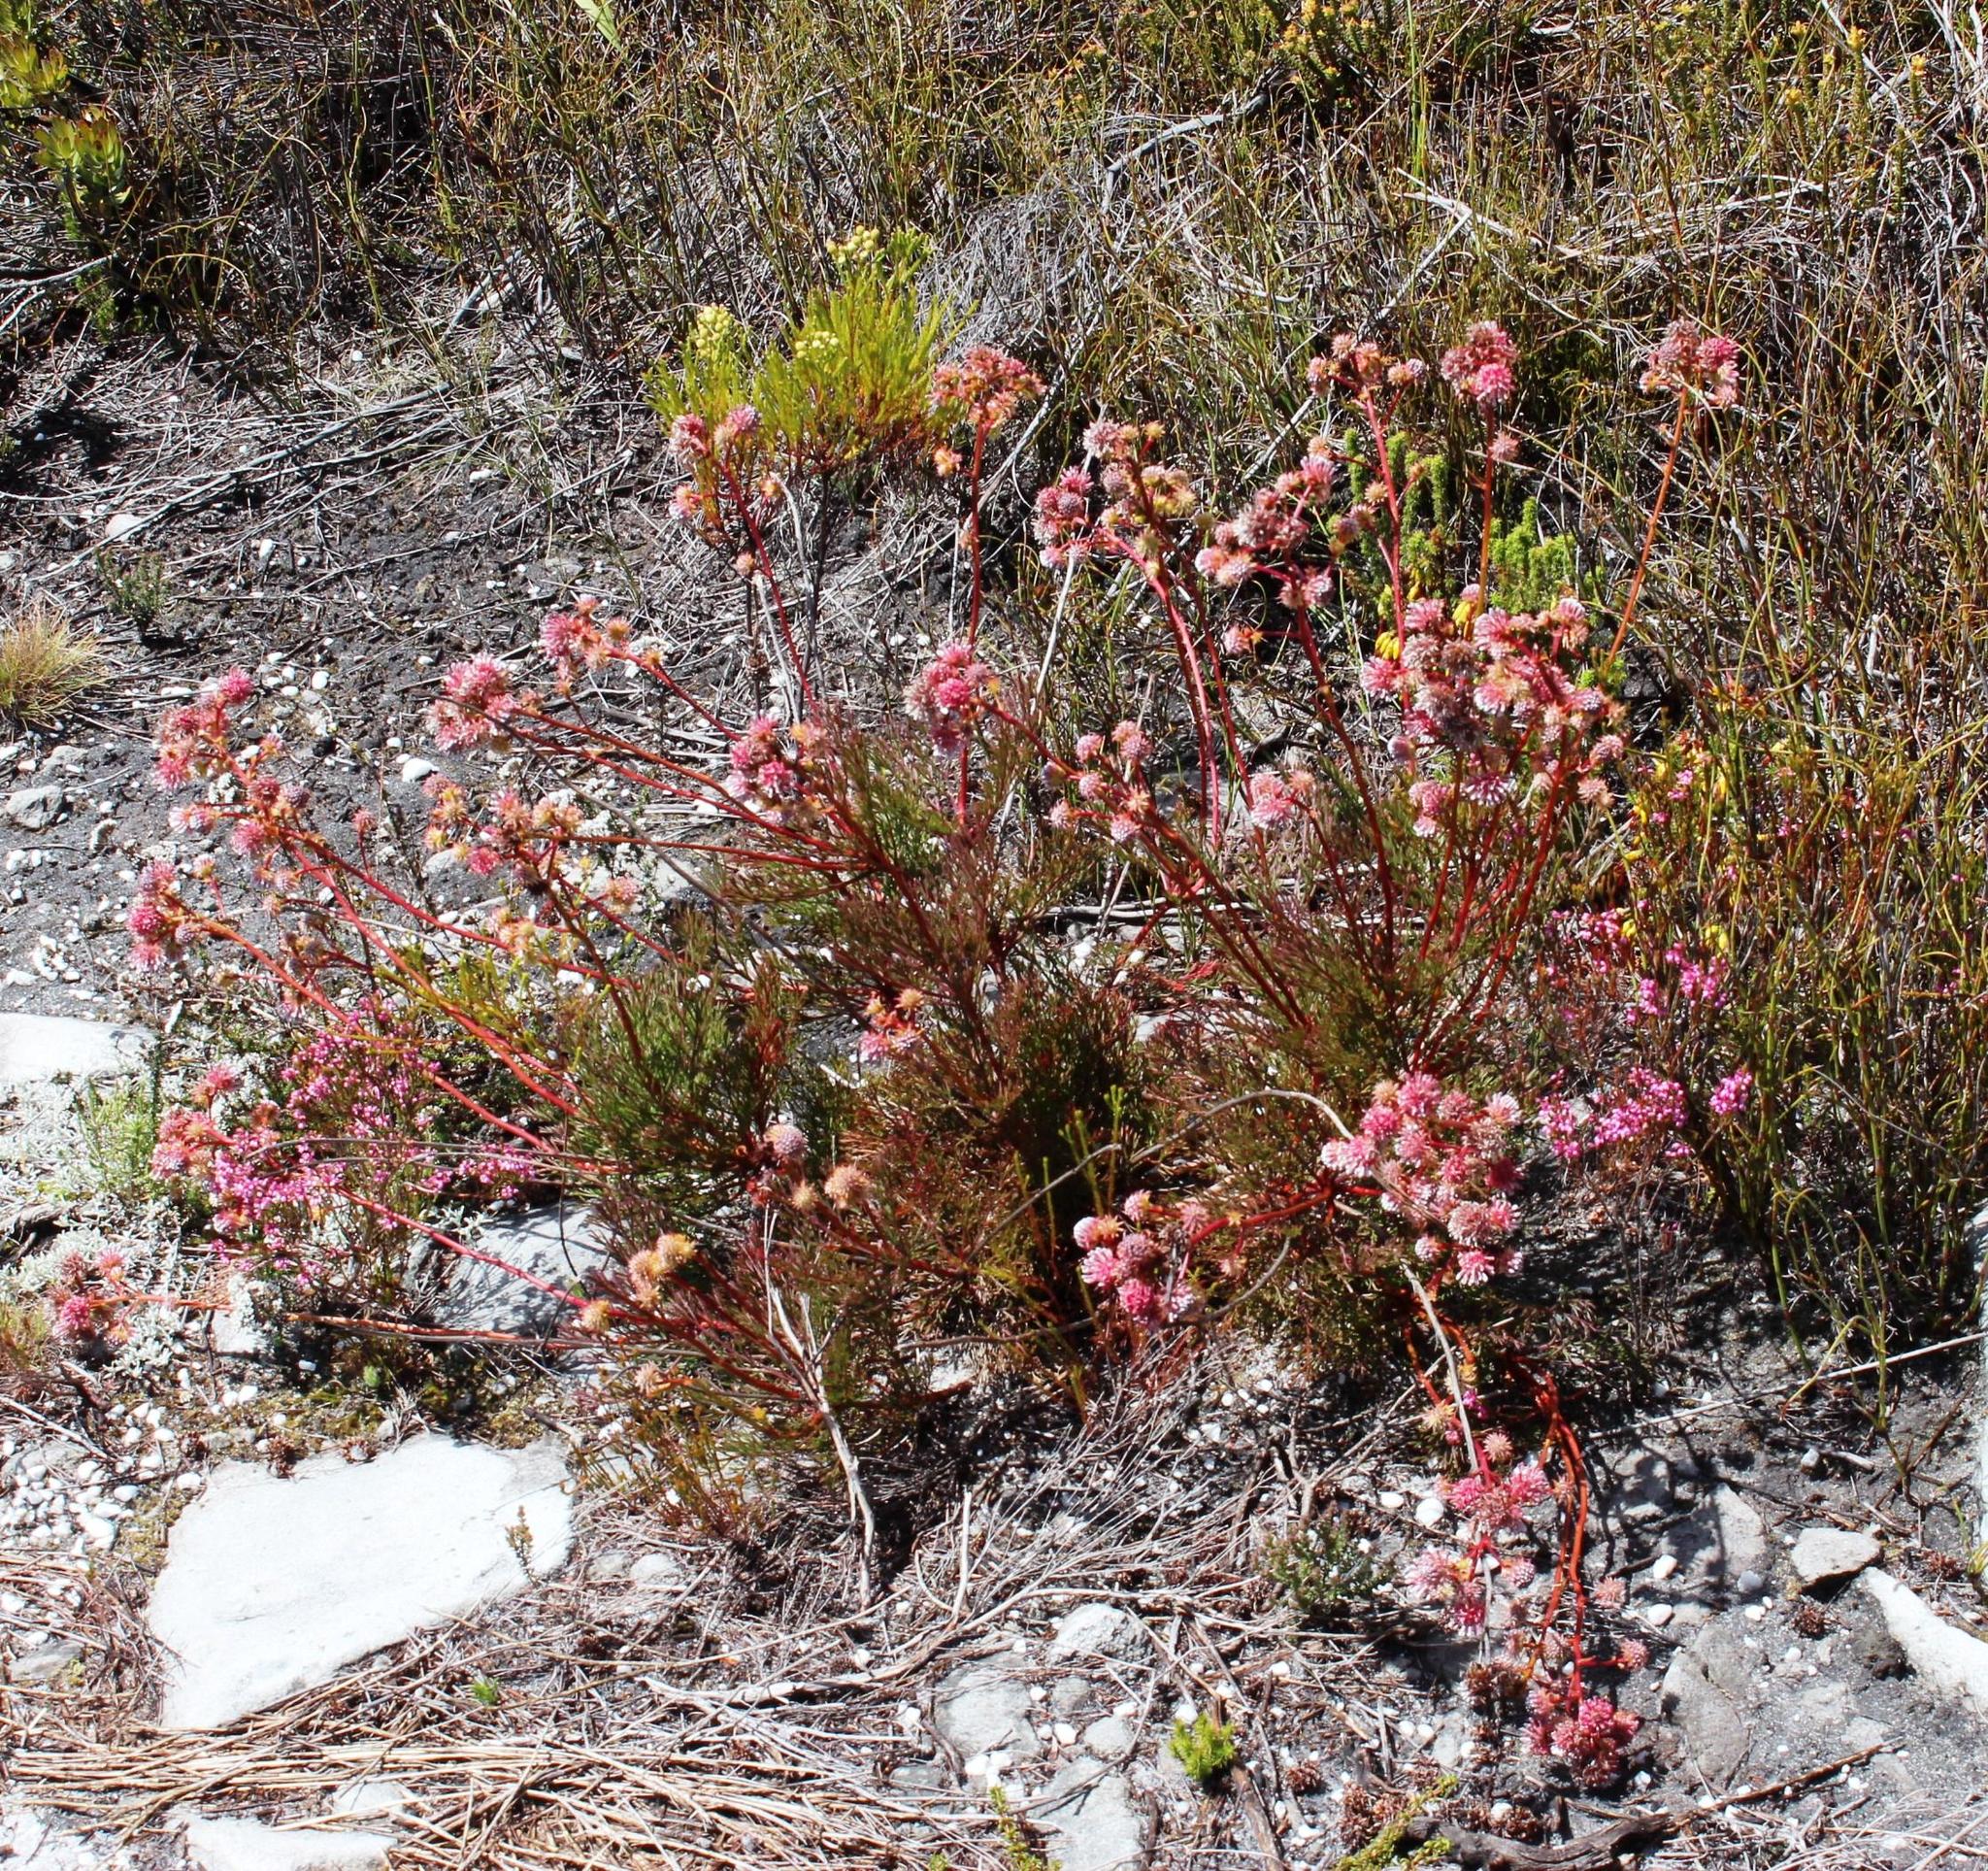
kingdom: Plantae
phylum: Tracheophyta
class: Magnoliopsida
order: Proteales
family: Proteaceae
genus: Serruria
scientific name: Serruria elongata
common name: Long-stalk spiderhead
